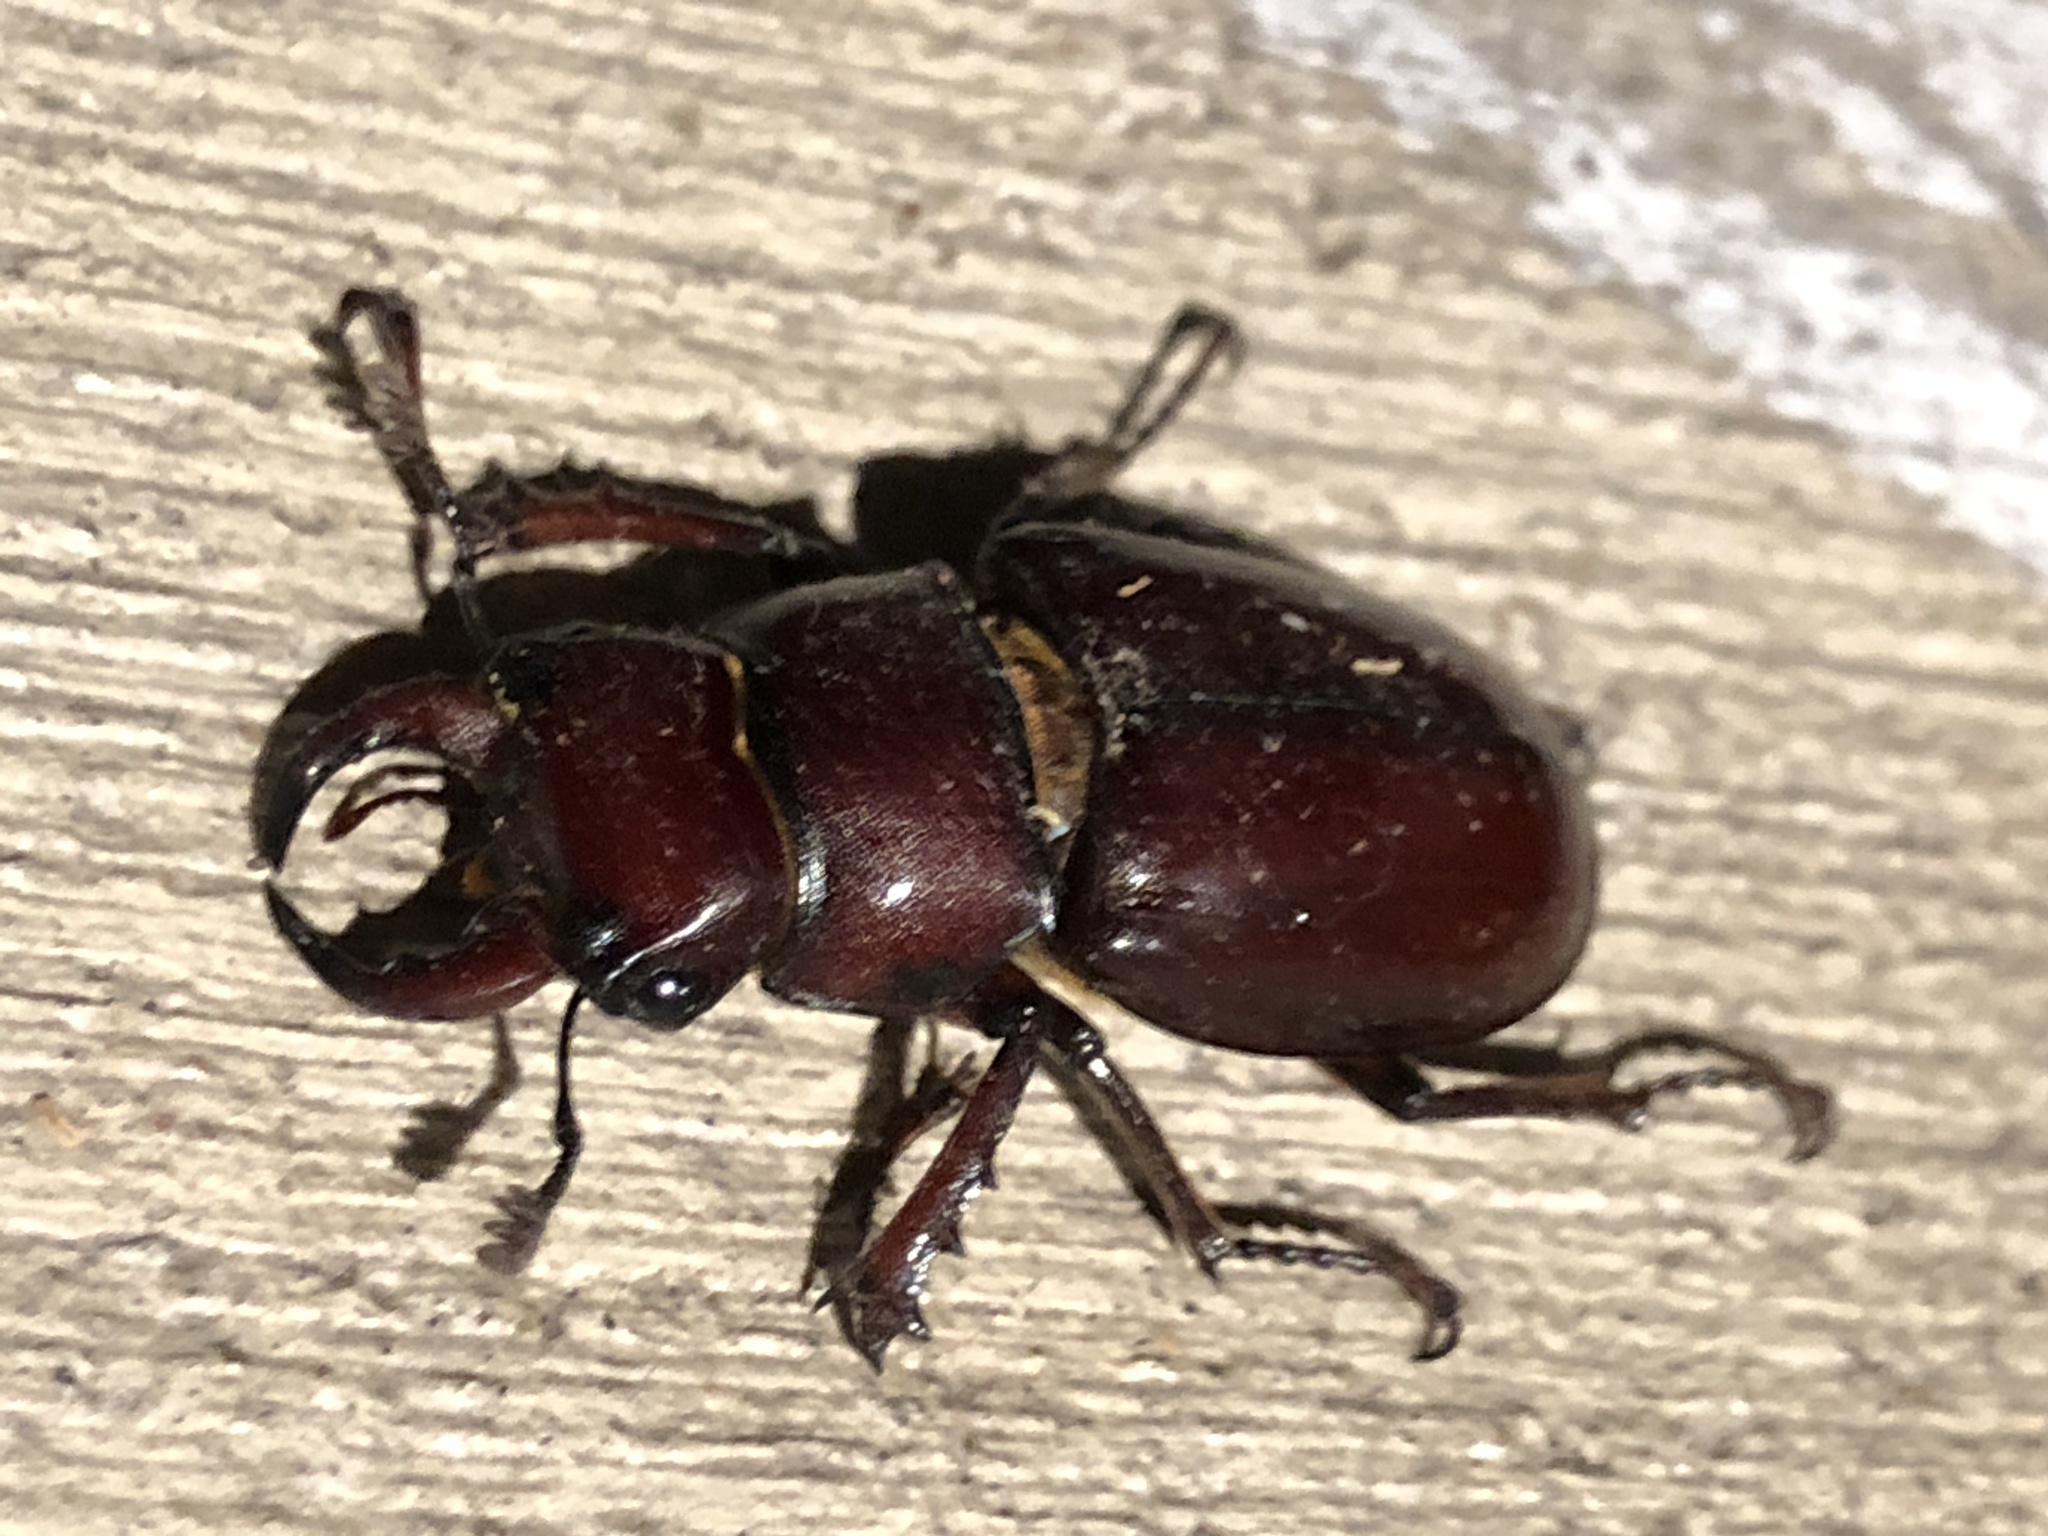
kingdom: Animalia
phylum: Arthropoda
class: Insecta
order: Coleoptera
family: Lucanidae
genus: Lucanus
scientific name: Lucanus capreolus
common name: Stag beetle
